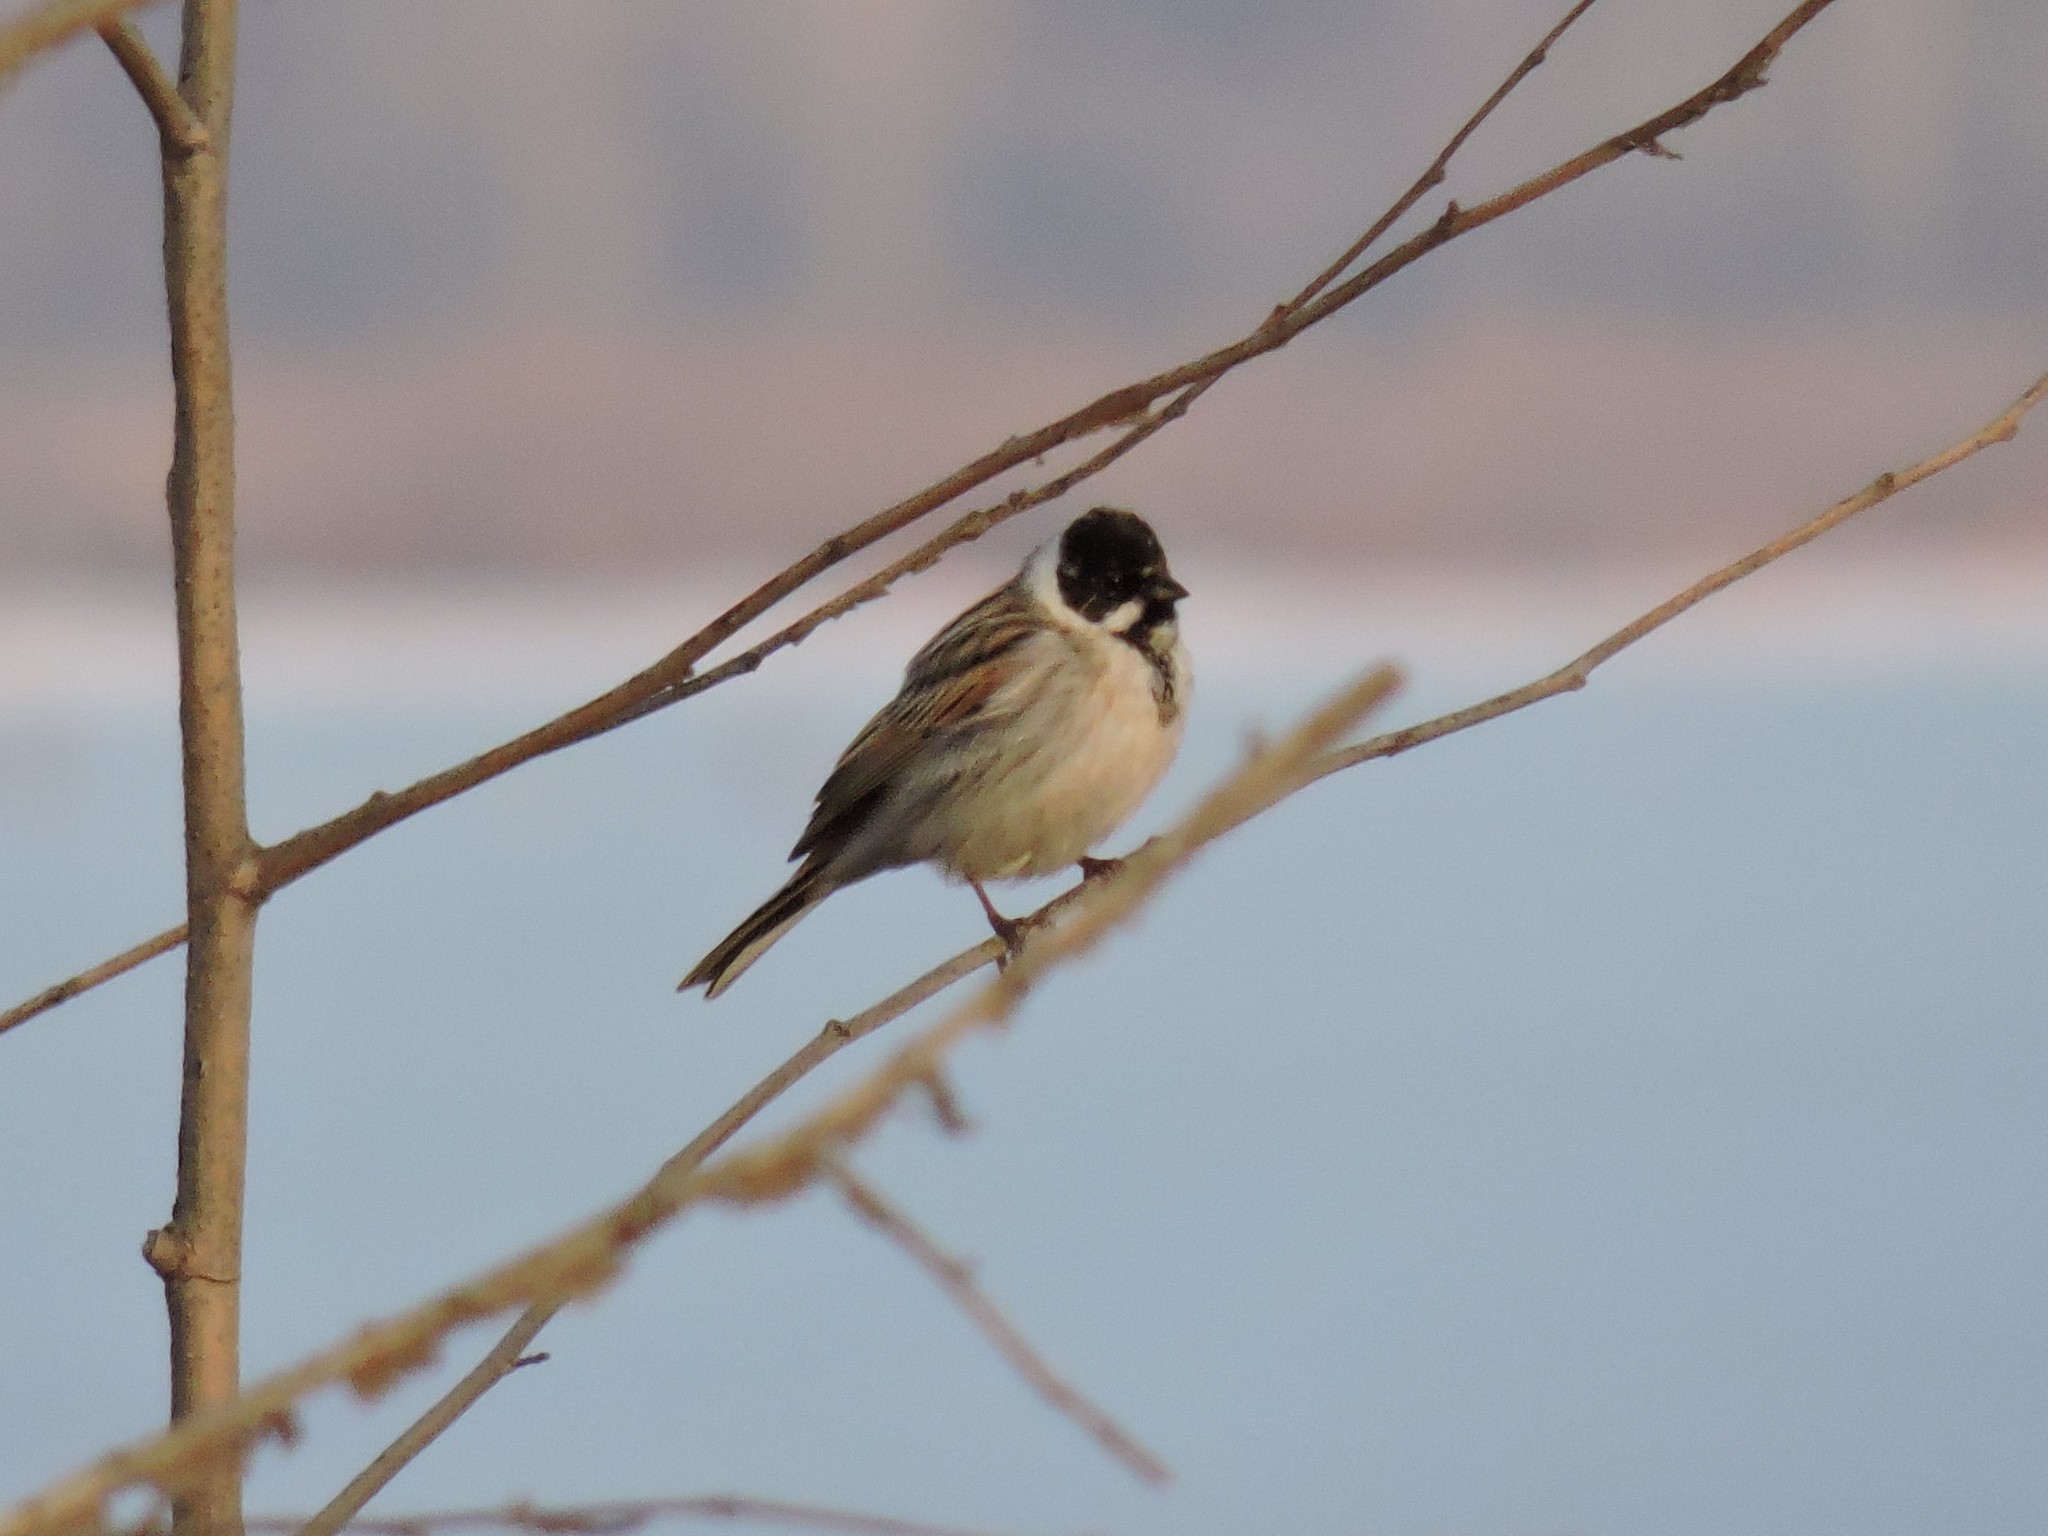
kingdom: Animalia
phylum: Chordata
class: Aves
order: Passeriformes
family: Emberizidae
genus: Emberiza
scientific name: Emberiza schoeniclus
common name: Reed bunting
